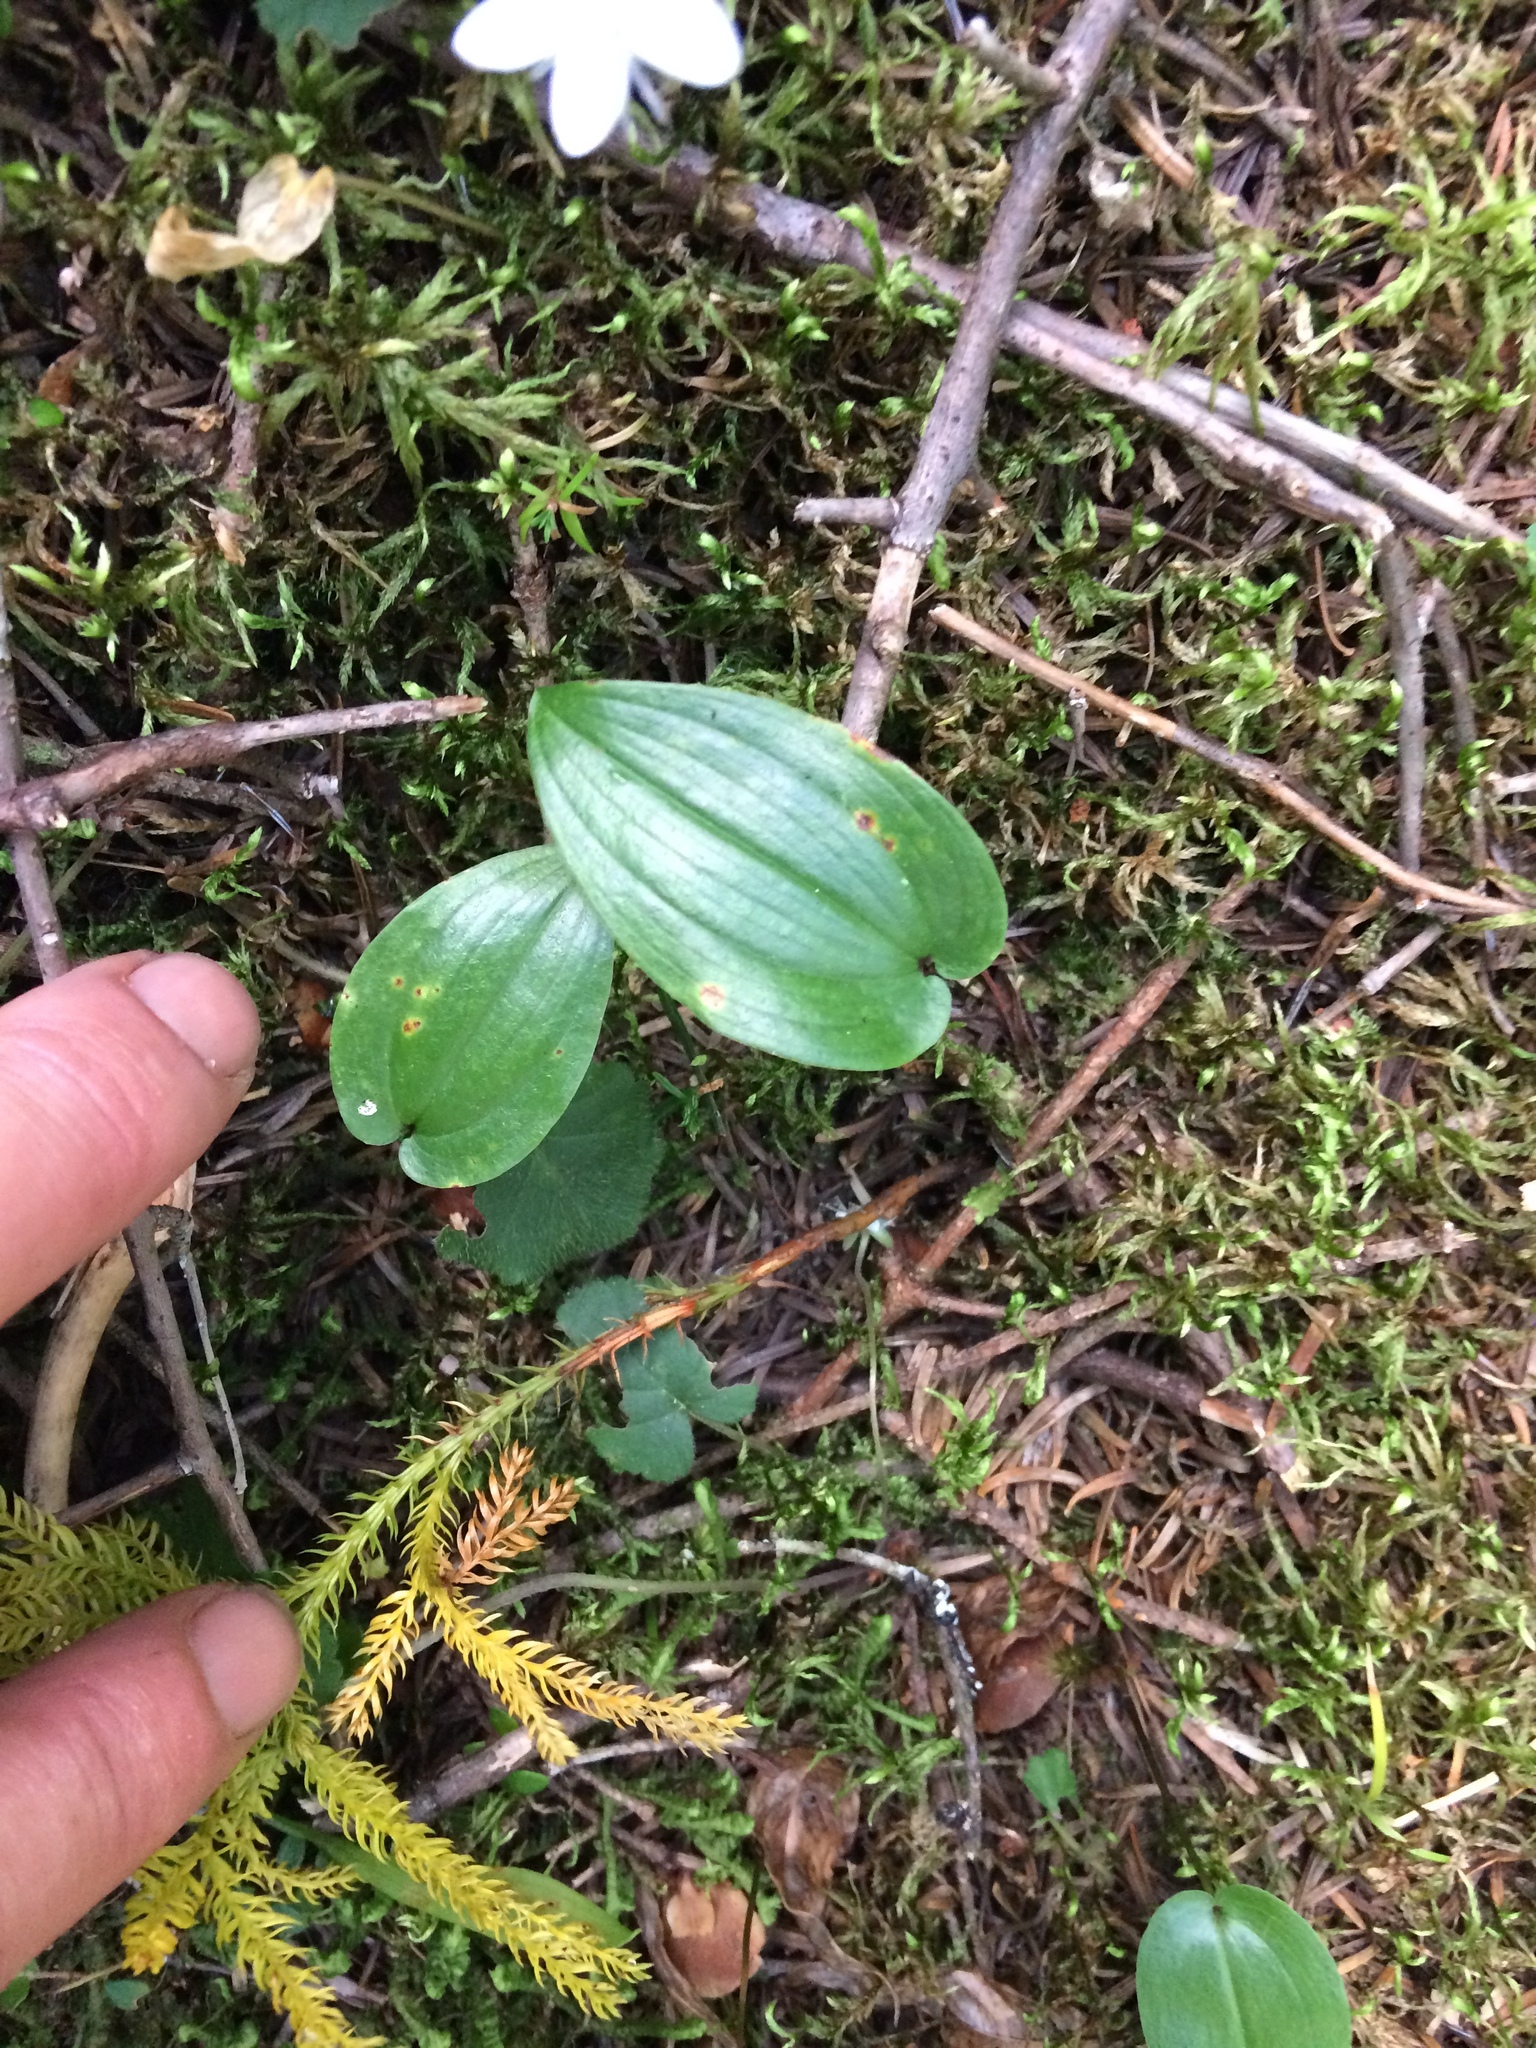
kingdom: Plantae
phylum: Tracheophyta
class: Liliopsida
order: Asparagales
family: Asparagaceae
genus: Maianthemum
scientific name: Maianthemum canadense
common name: False lily-of-the-valley
